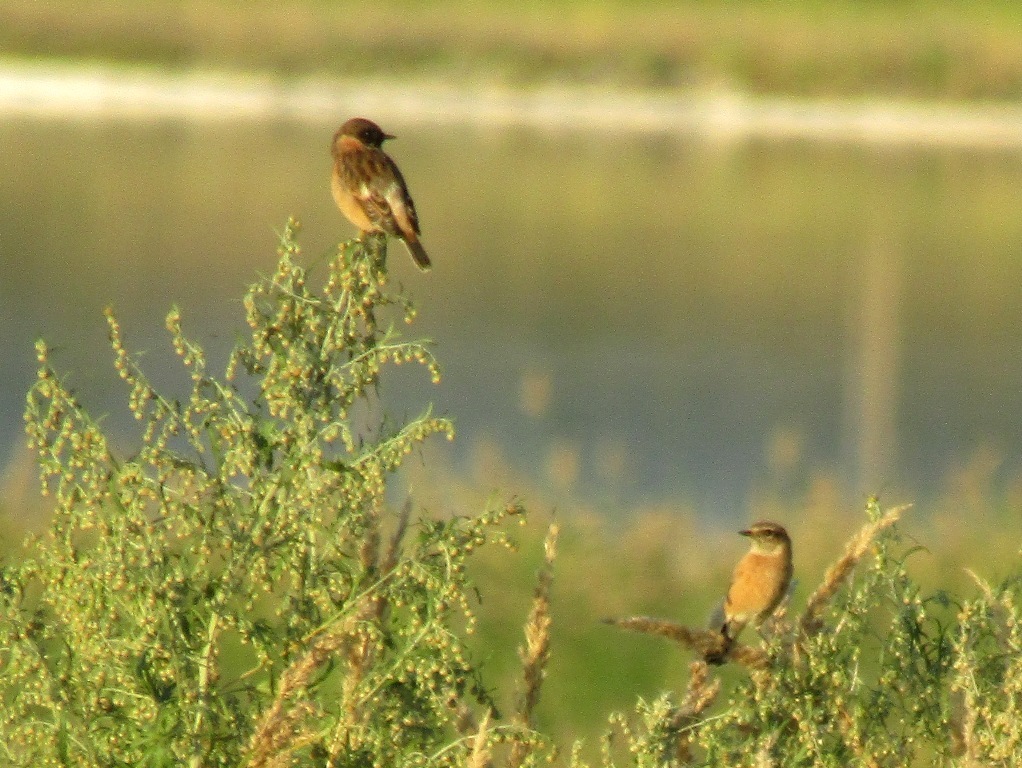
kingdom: Animalia
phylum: Chordata
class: Aves
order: Passeriformes
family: Muscicapidae
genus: Saxicola
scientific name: Saxicola maurus
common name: Siberian stonechat
